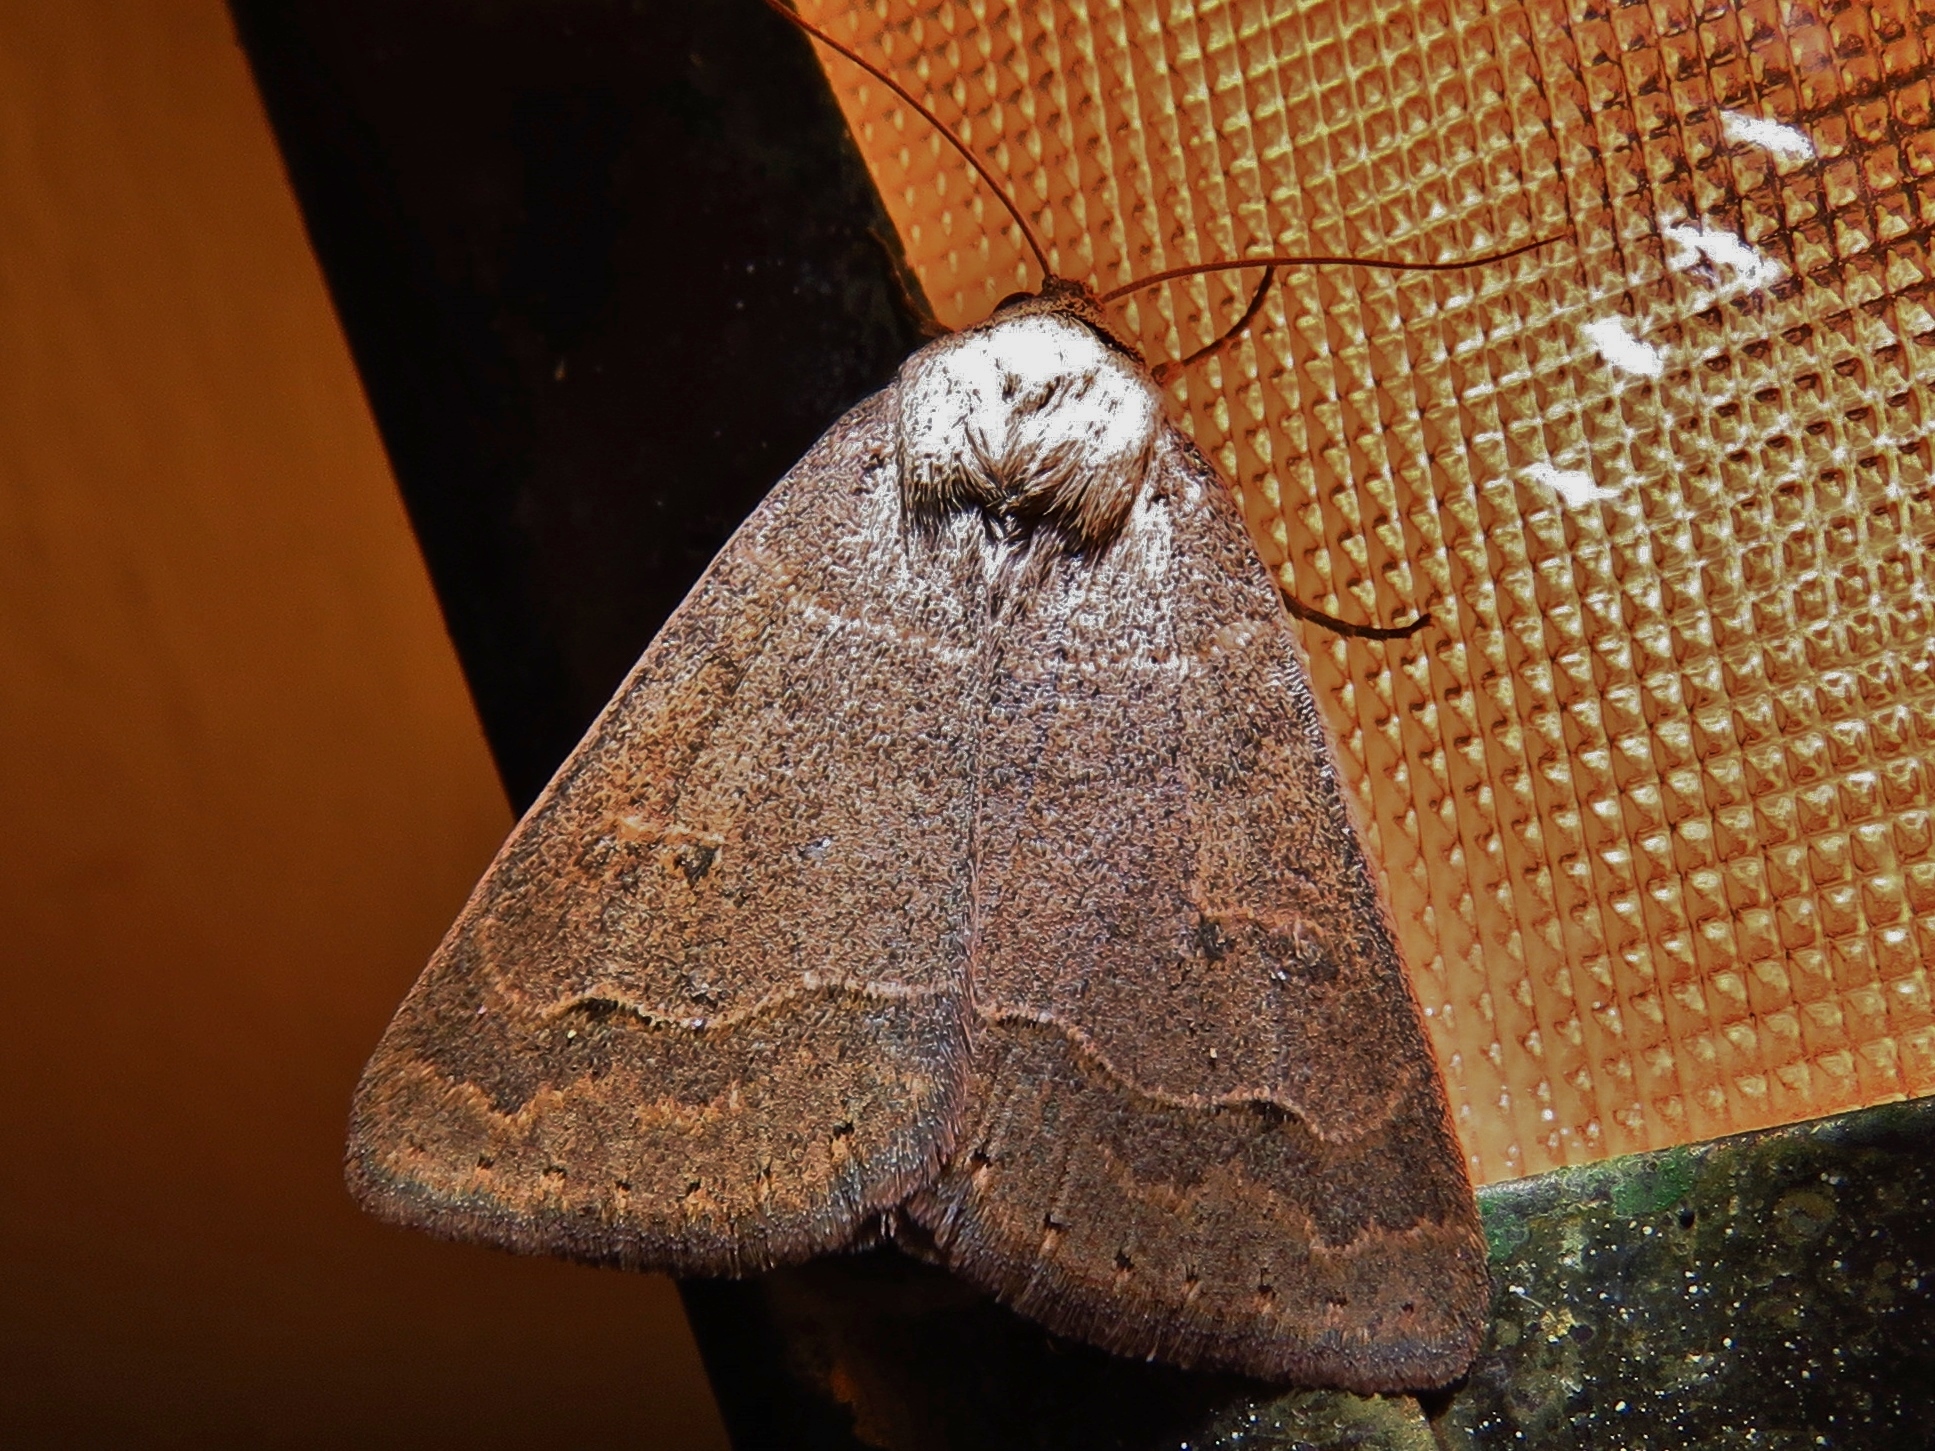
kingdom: Animalia
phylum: Arthropoda
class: Insecta
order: Lepidoptera
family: Erebidae
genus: Phoberia
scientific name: Phoberia atomaris
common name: Common oak moth
